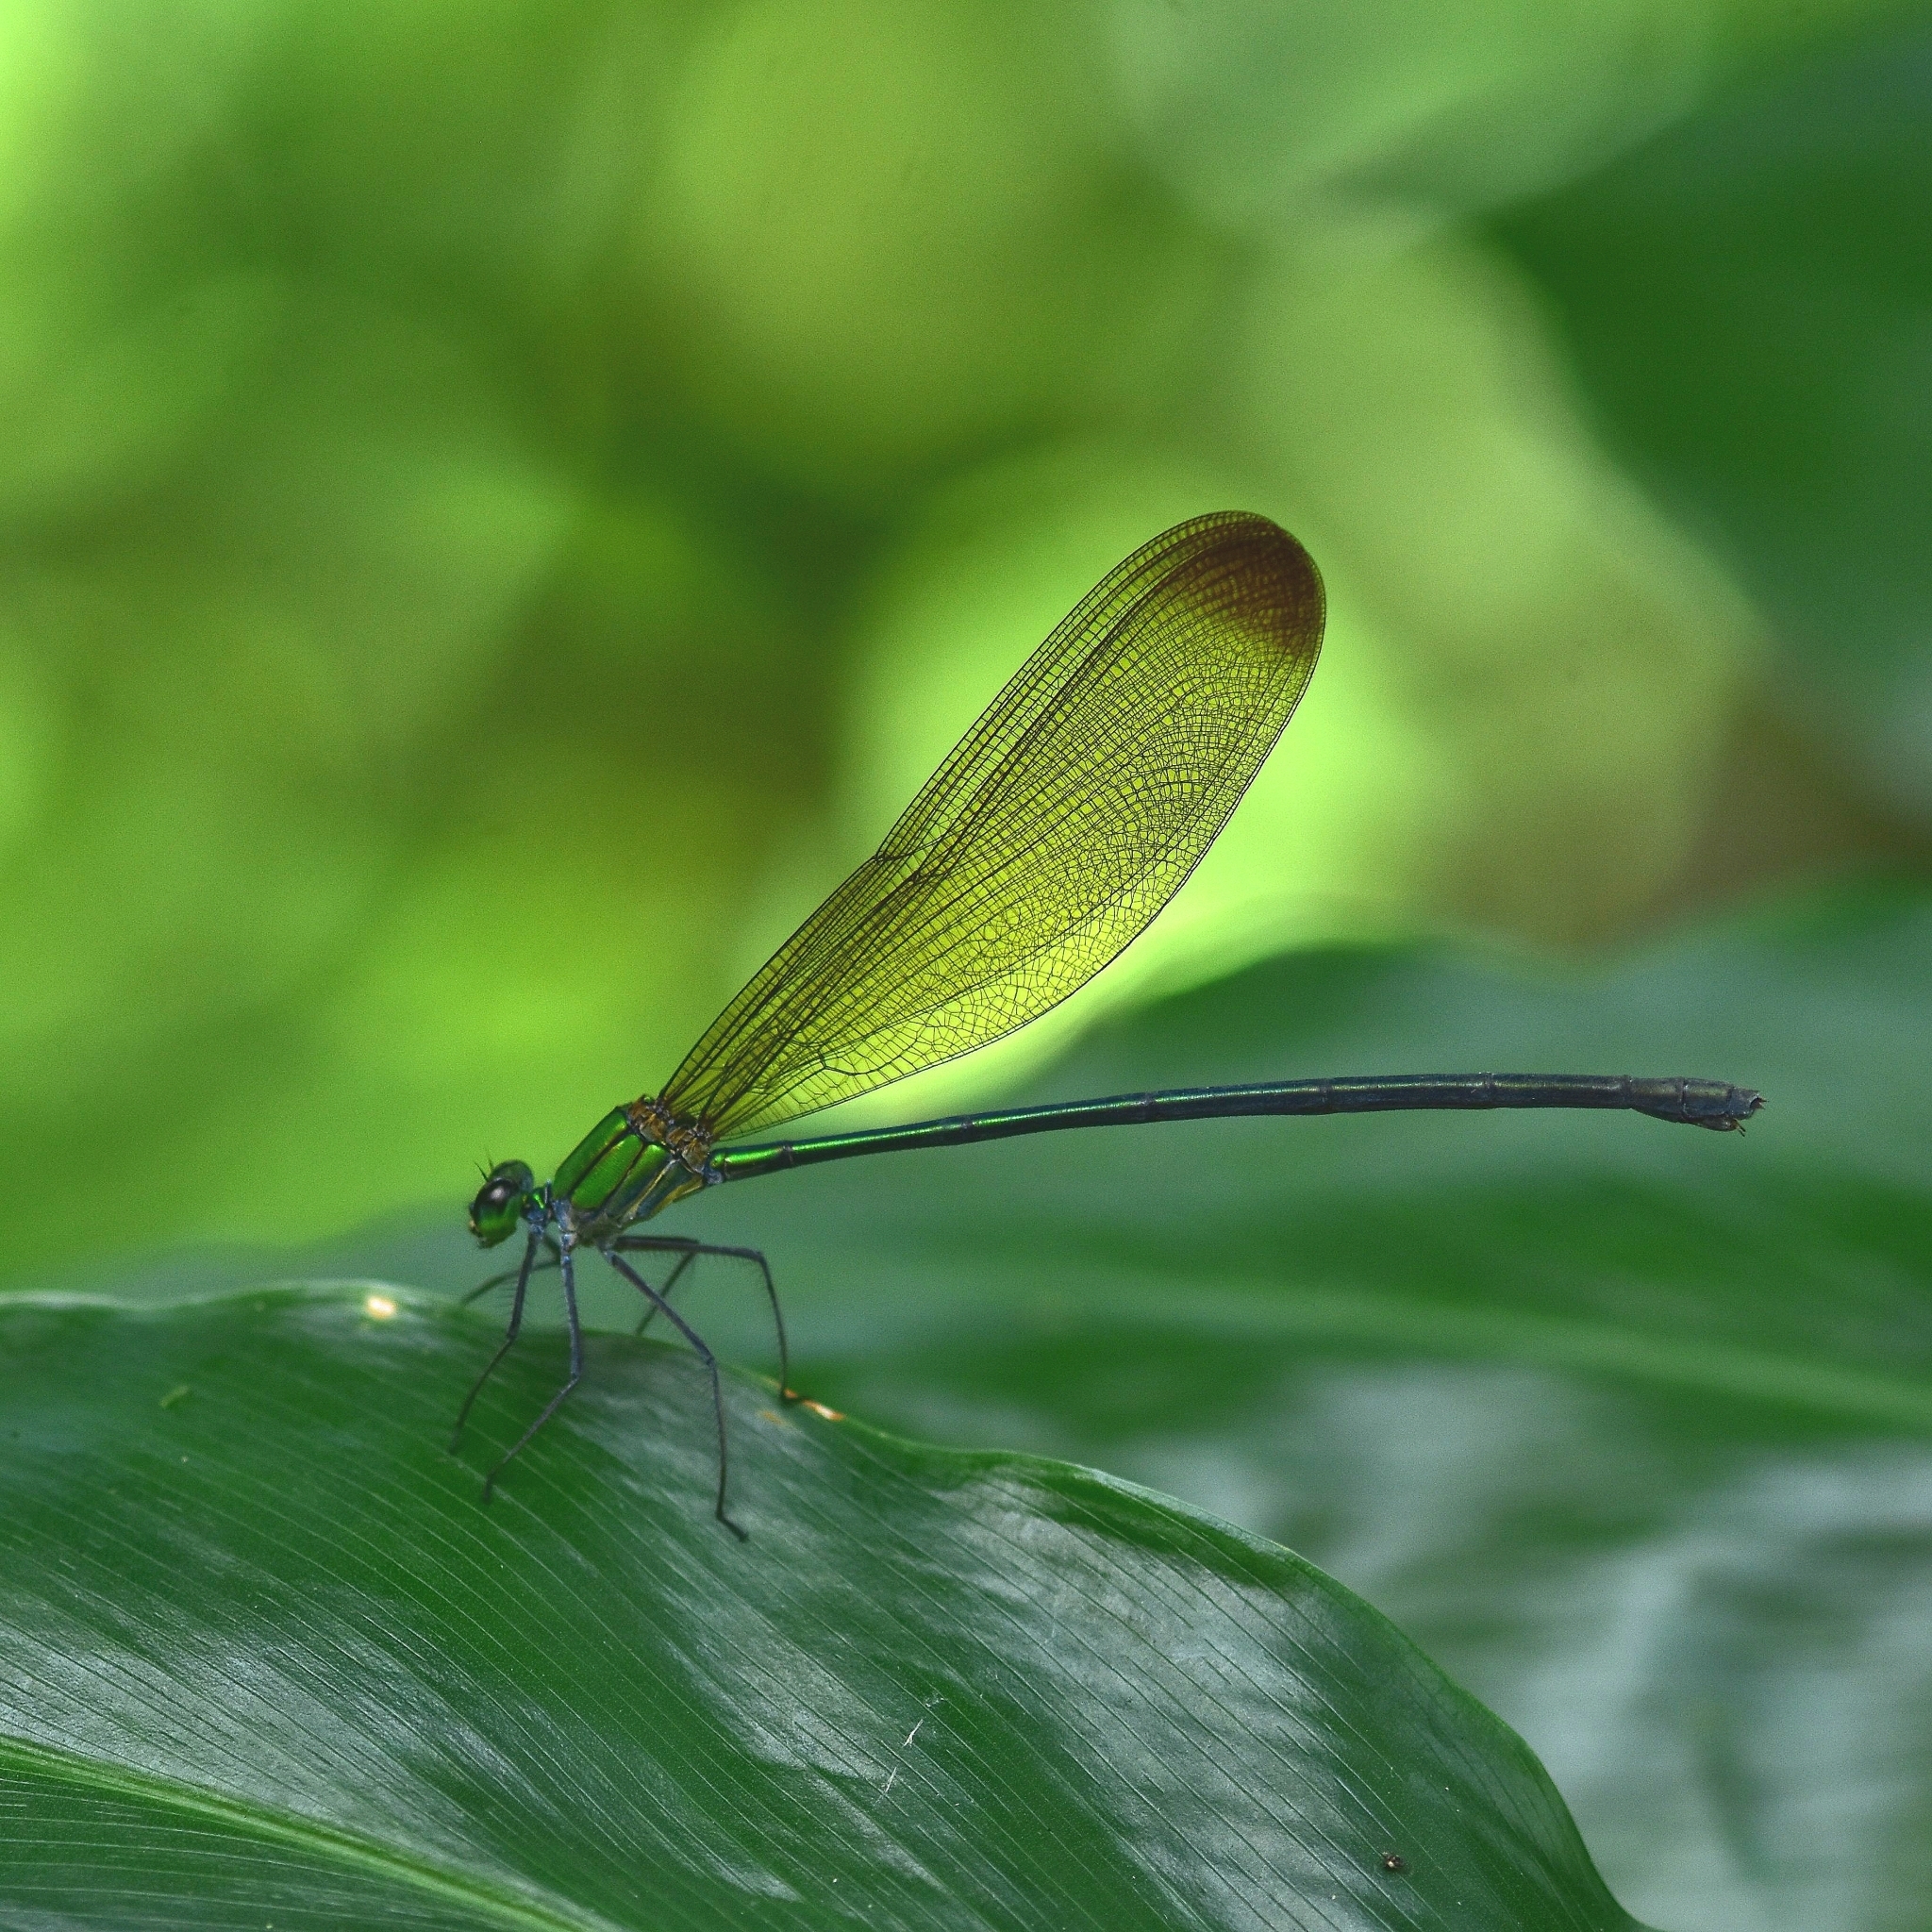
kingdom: Animalia
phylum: Arthropoda
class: Insecta
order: Odonata
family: Calopterygidae
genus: Vestalis
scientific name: Vestalis apicalis
